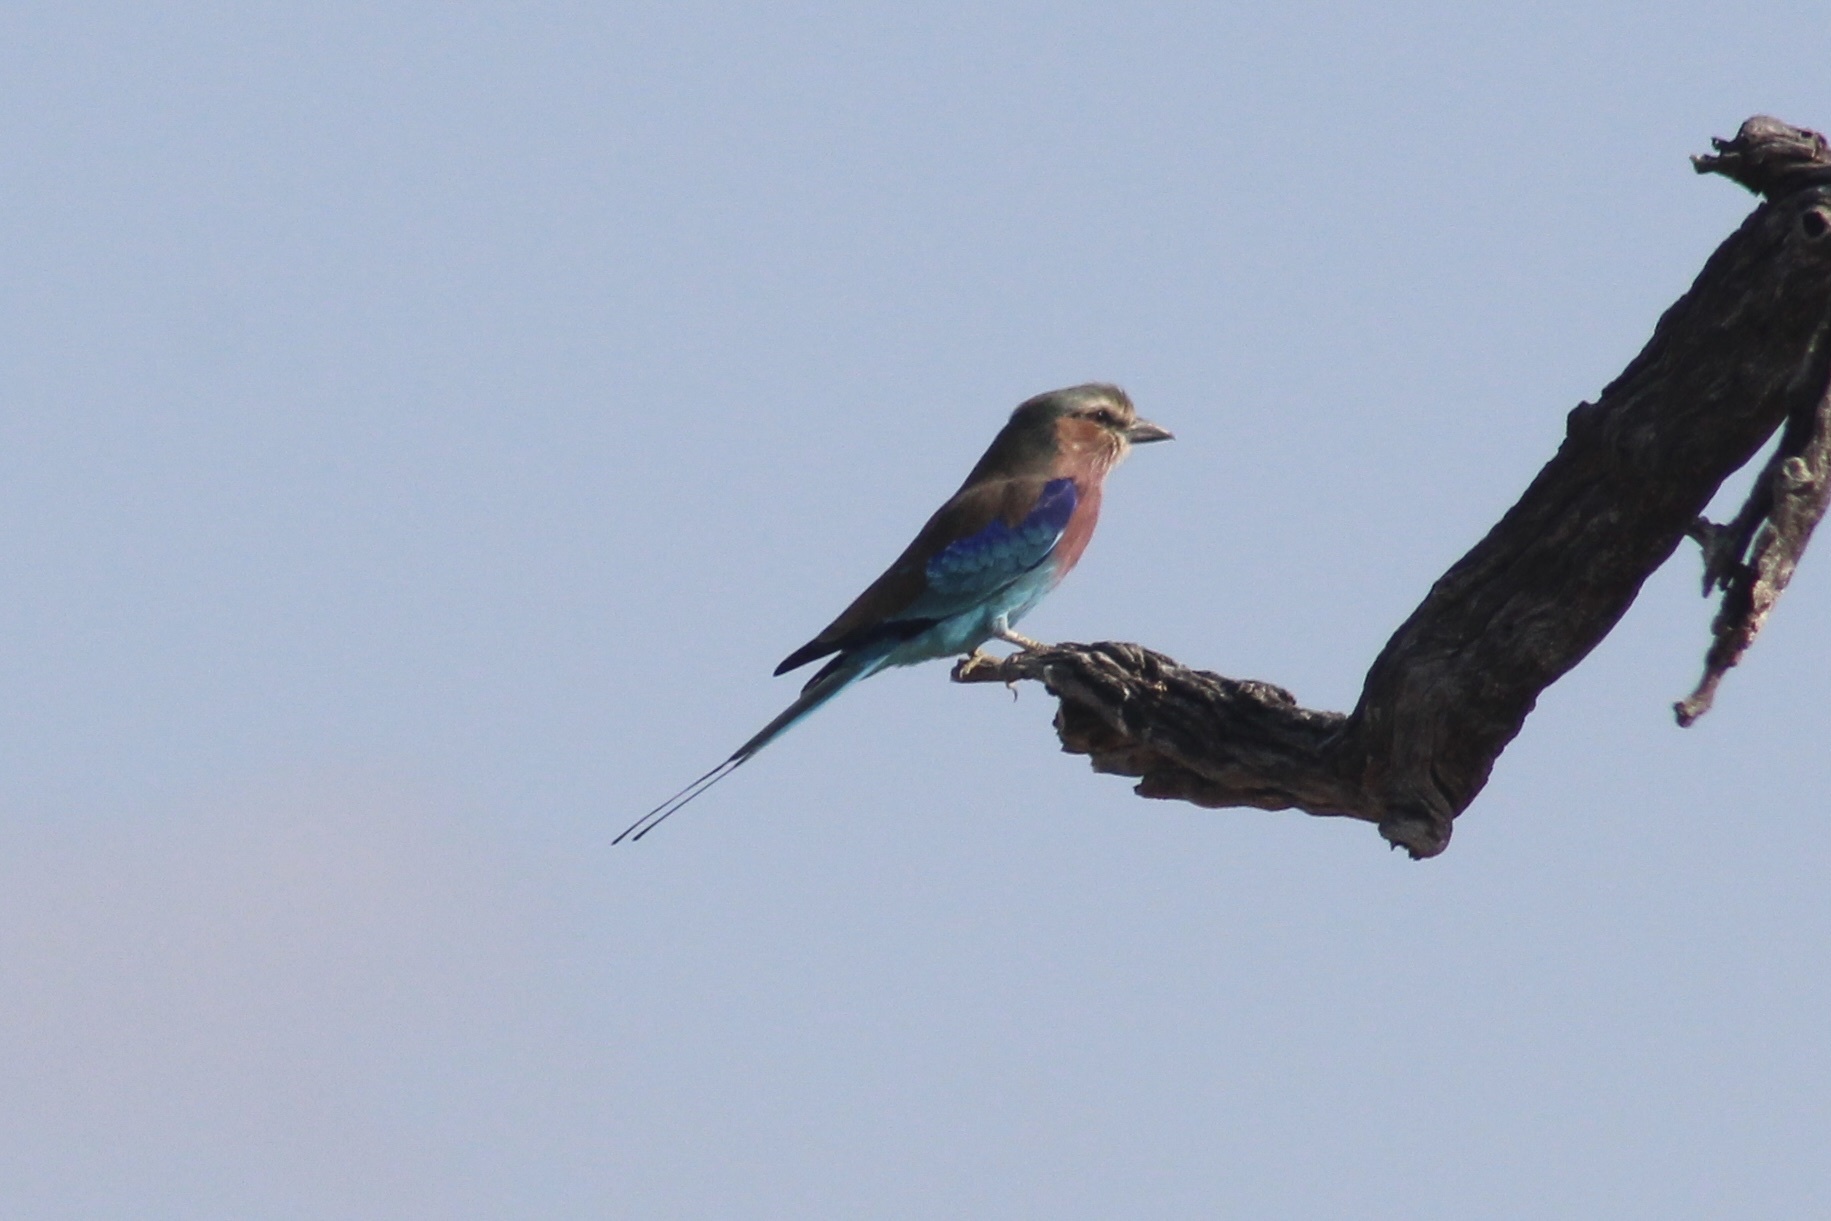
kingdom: Animalia
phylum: Chordata
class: Aves
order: Coraciiformes
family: Coraciidae
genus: Coracias
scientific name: Coracias caudatus
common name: Lilac-breasted roller
